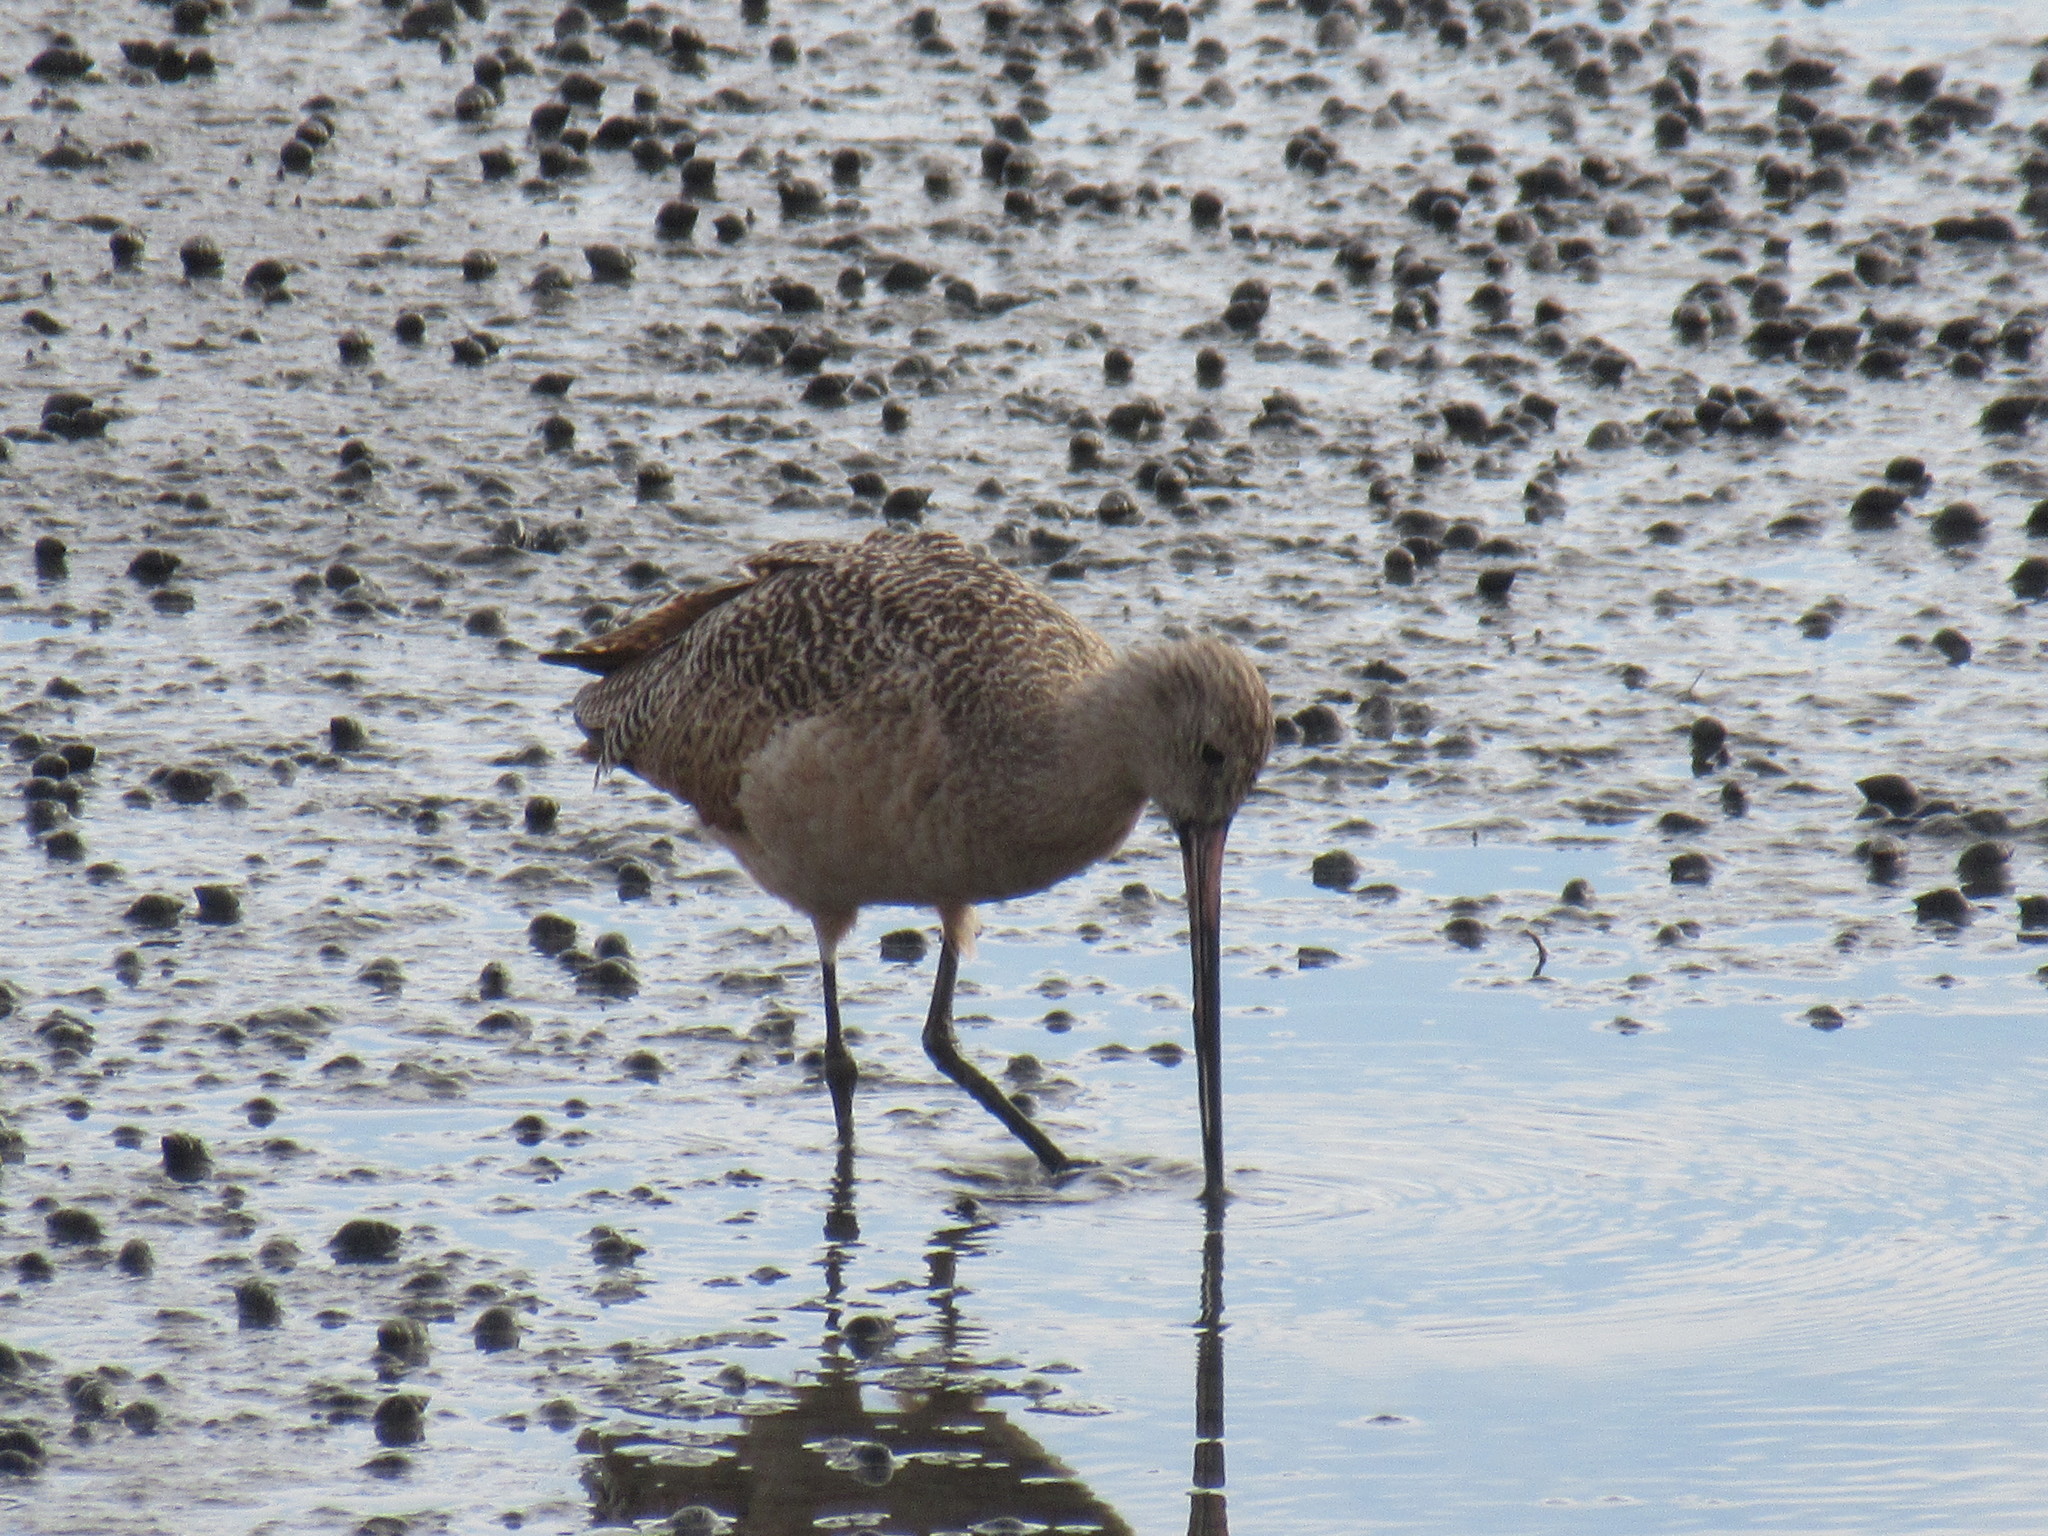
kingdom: Animalia
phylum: Chordata
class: Aves
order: Charadriiformes
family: Scolopacidae
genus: Limosa
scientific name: Limosa fedoa
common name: Marbled godwit
